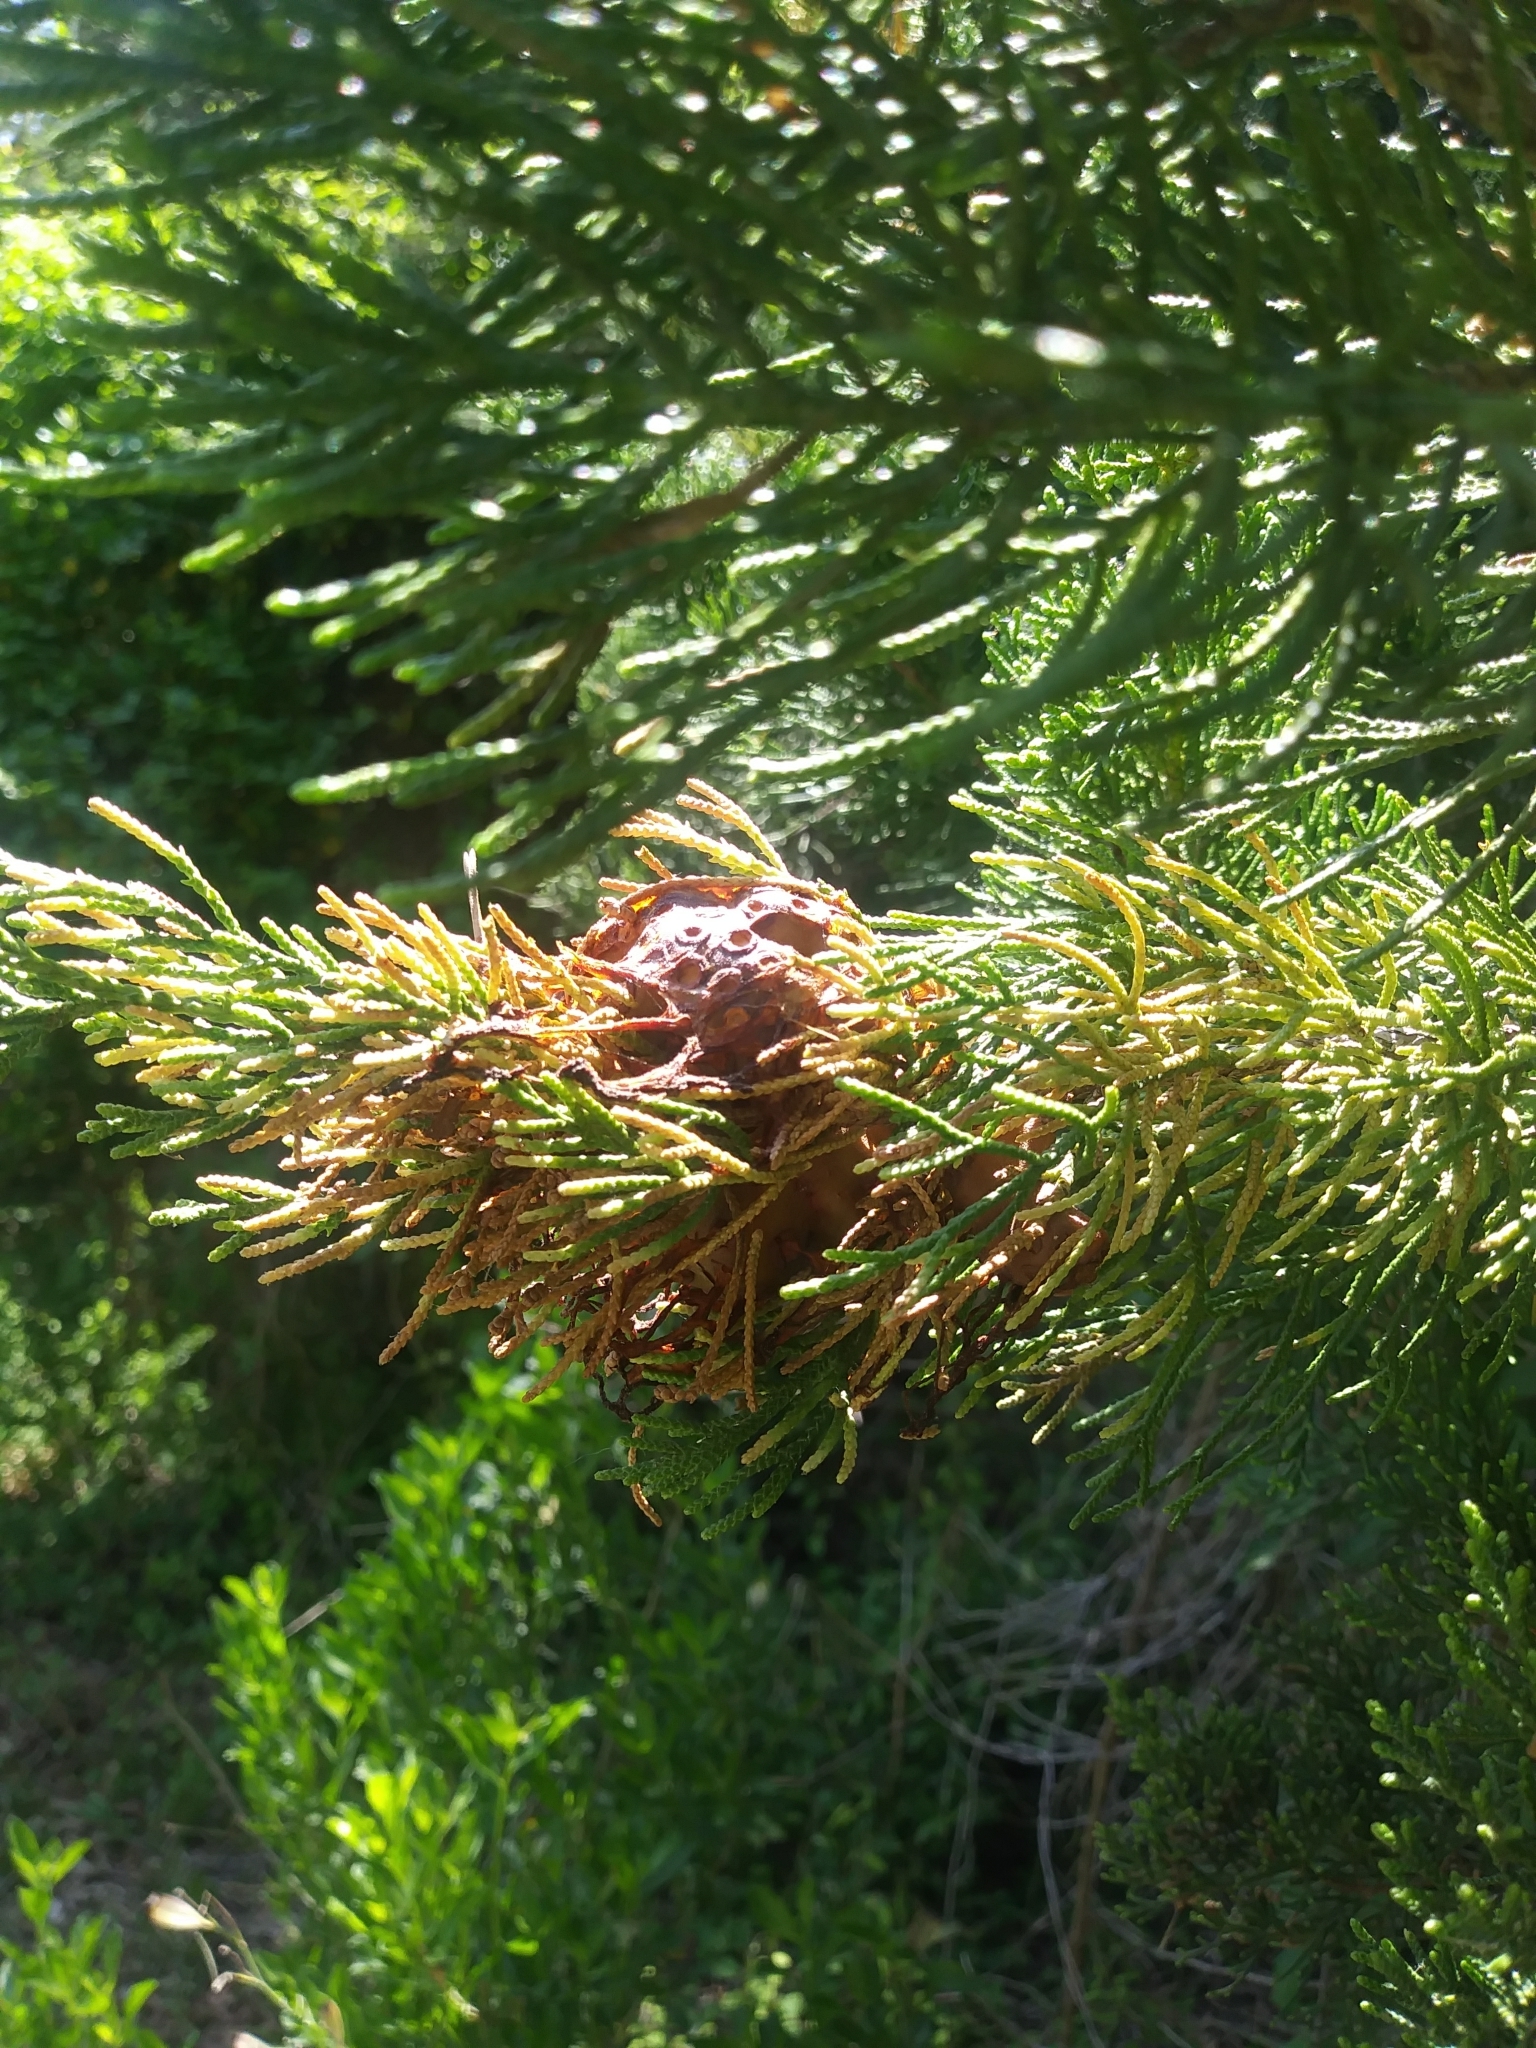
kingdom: Fungi
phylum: Basidiomycota
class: Pucciniomycetes
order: Pucciniales
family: Gymnosporangiaceae
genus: Gymnosporangium
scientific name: Gymnosporangium juniperi-virginianae
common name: Juniper-apple rust
